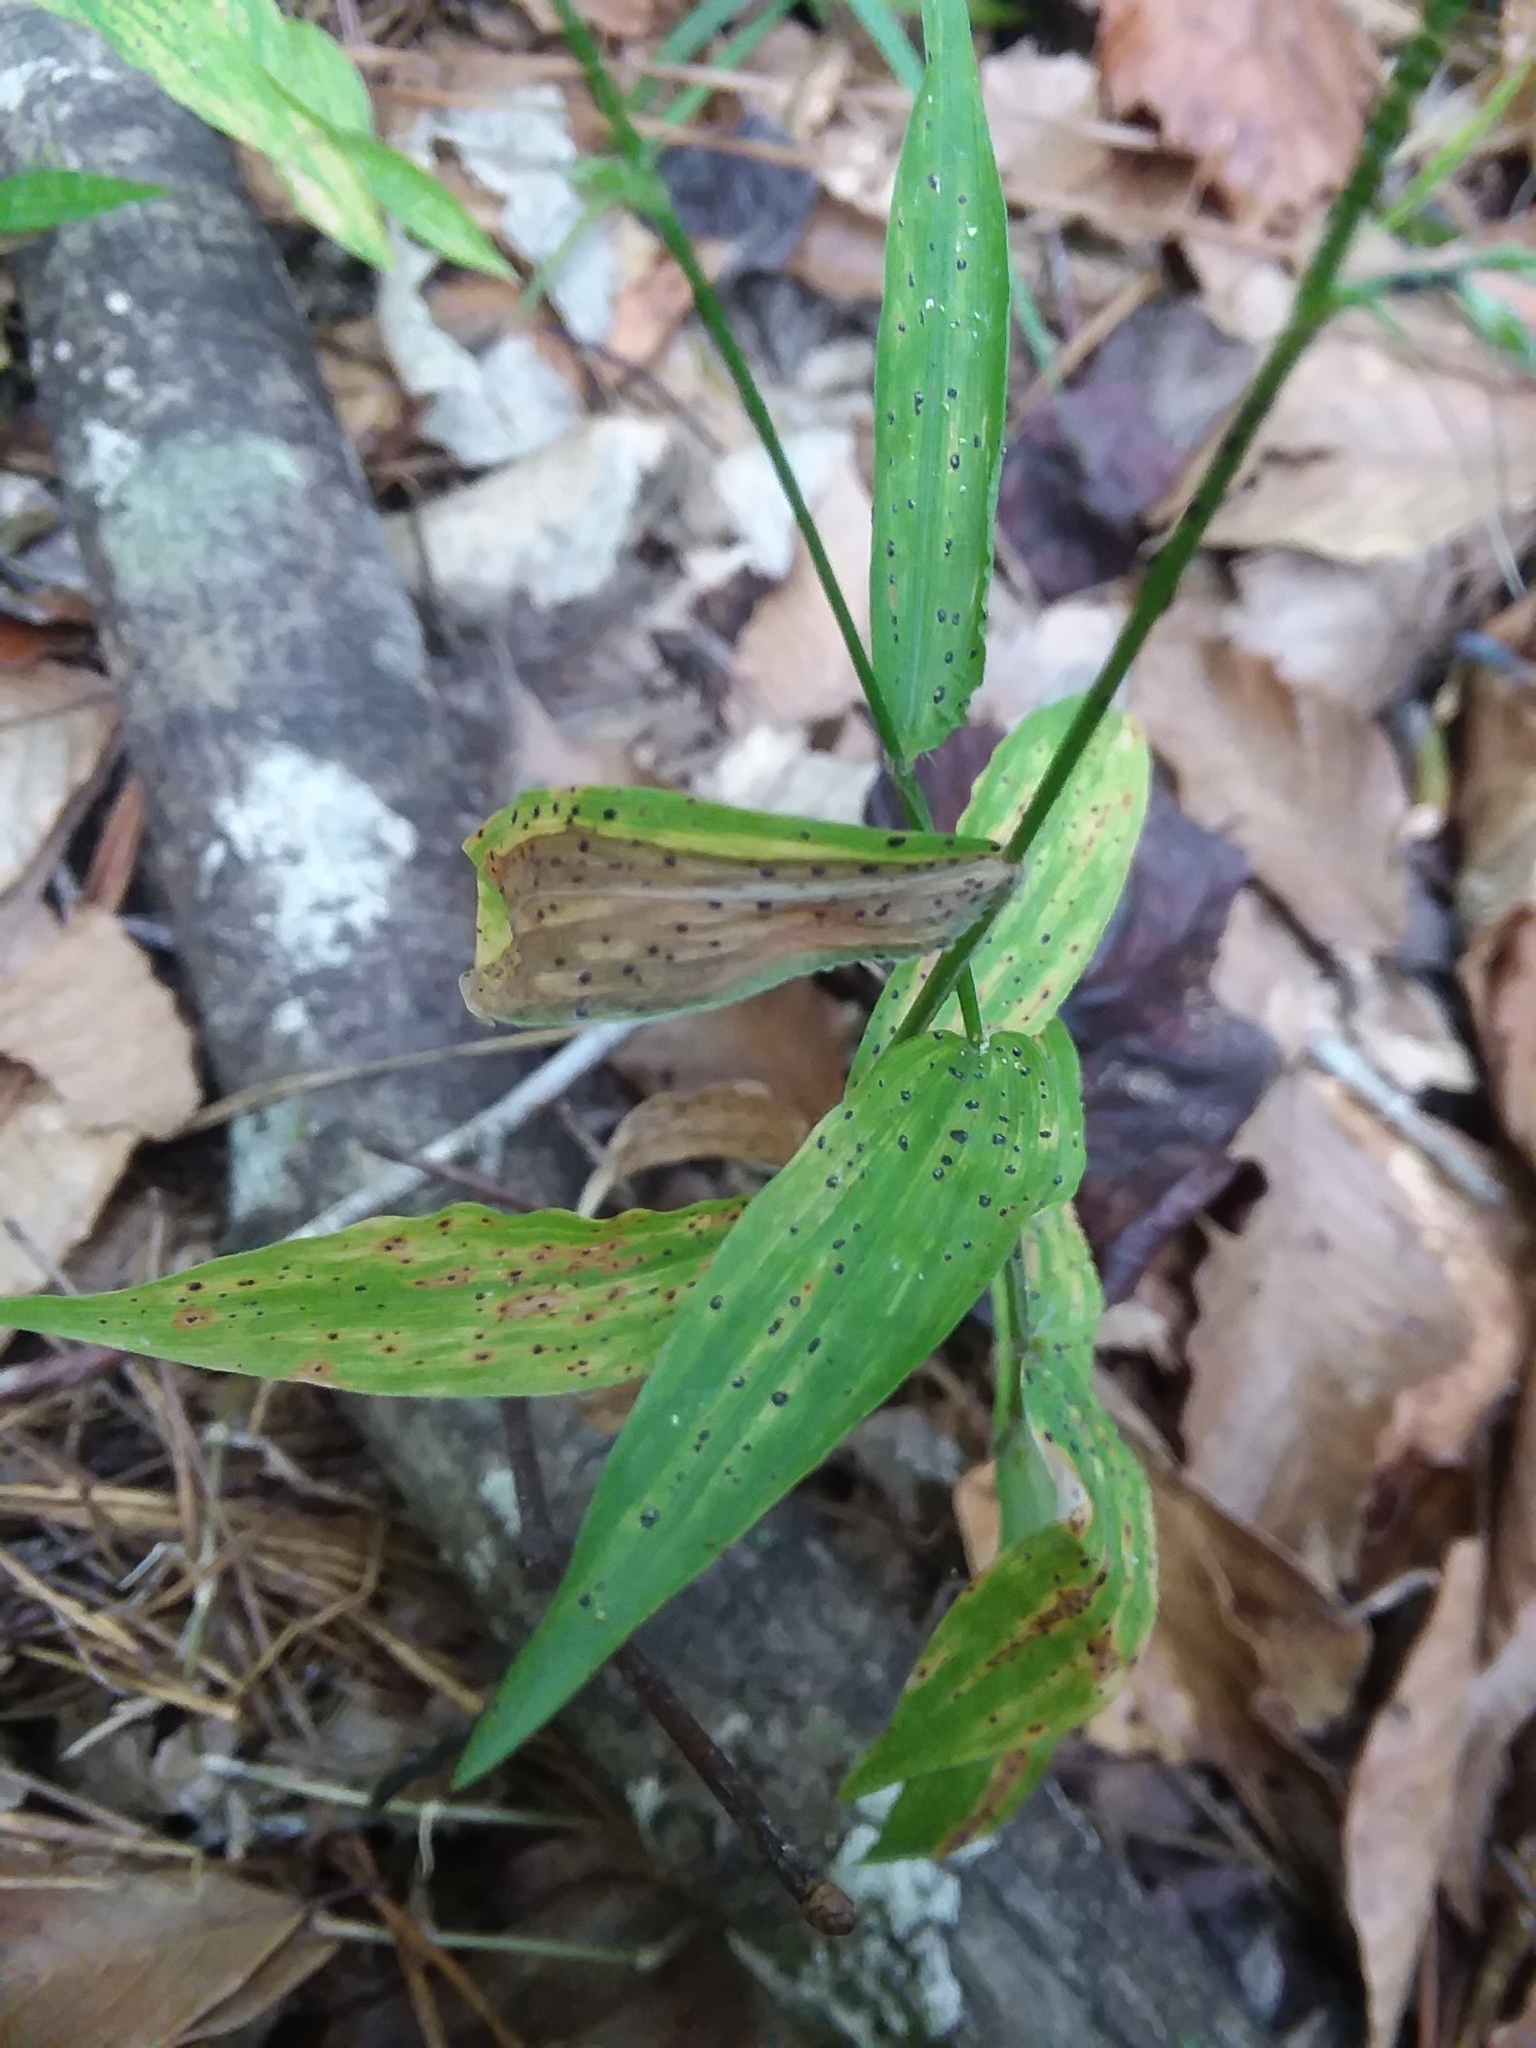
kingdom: Plantae
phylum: Tracheophyta
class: Liliopsida
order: Poales
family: Poaceae
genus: Oplismenus
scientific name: Oplismenus compositus
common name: Running mountain grass
